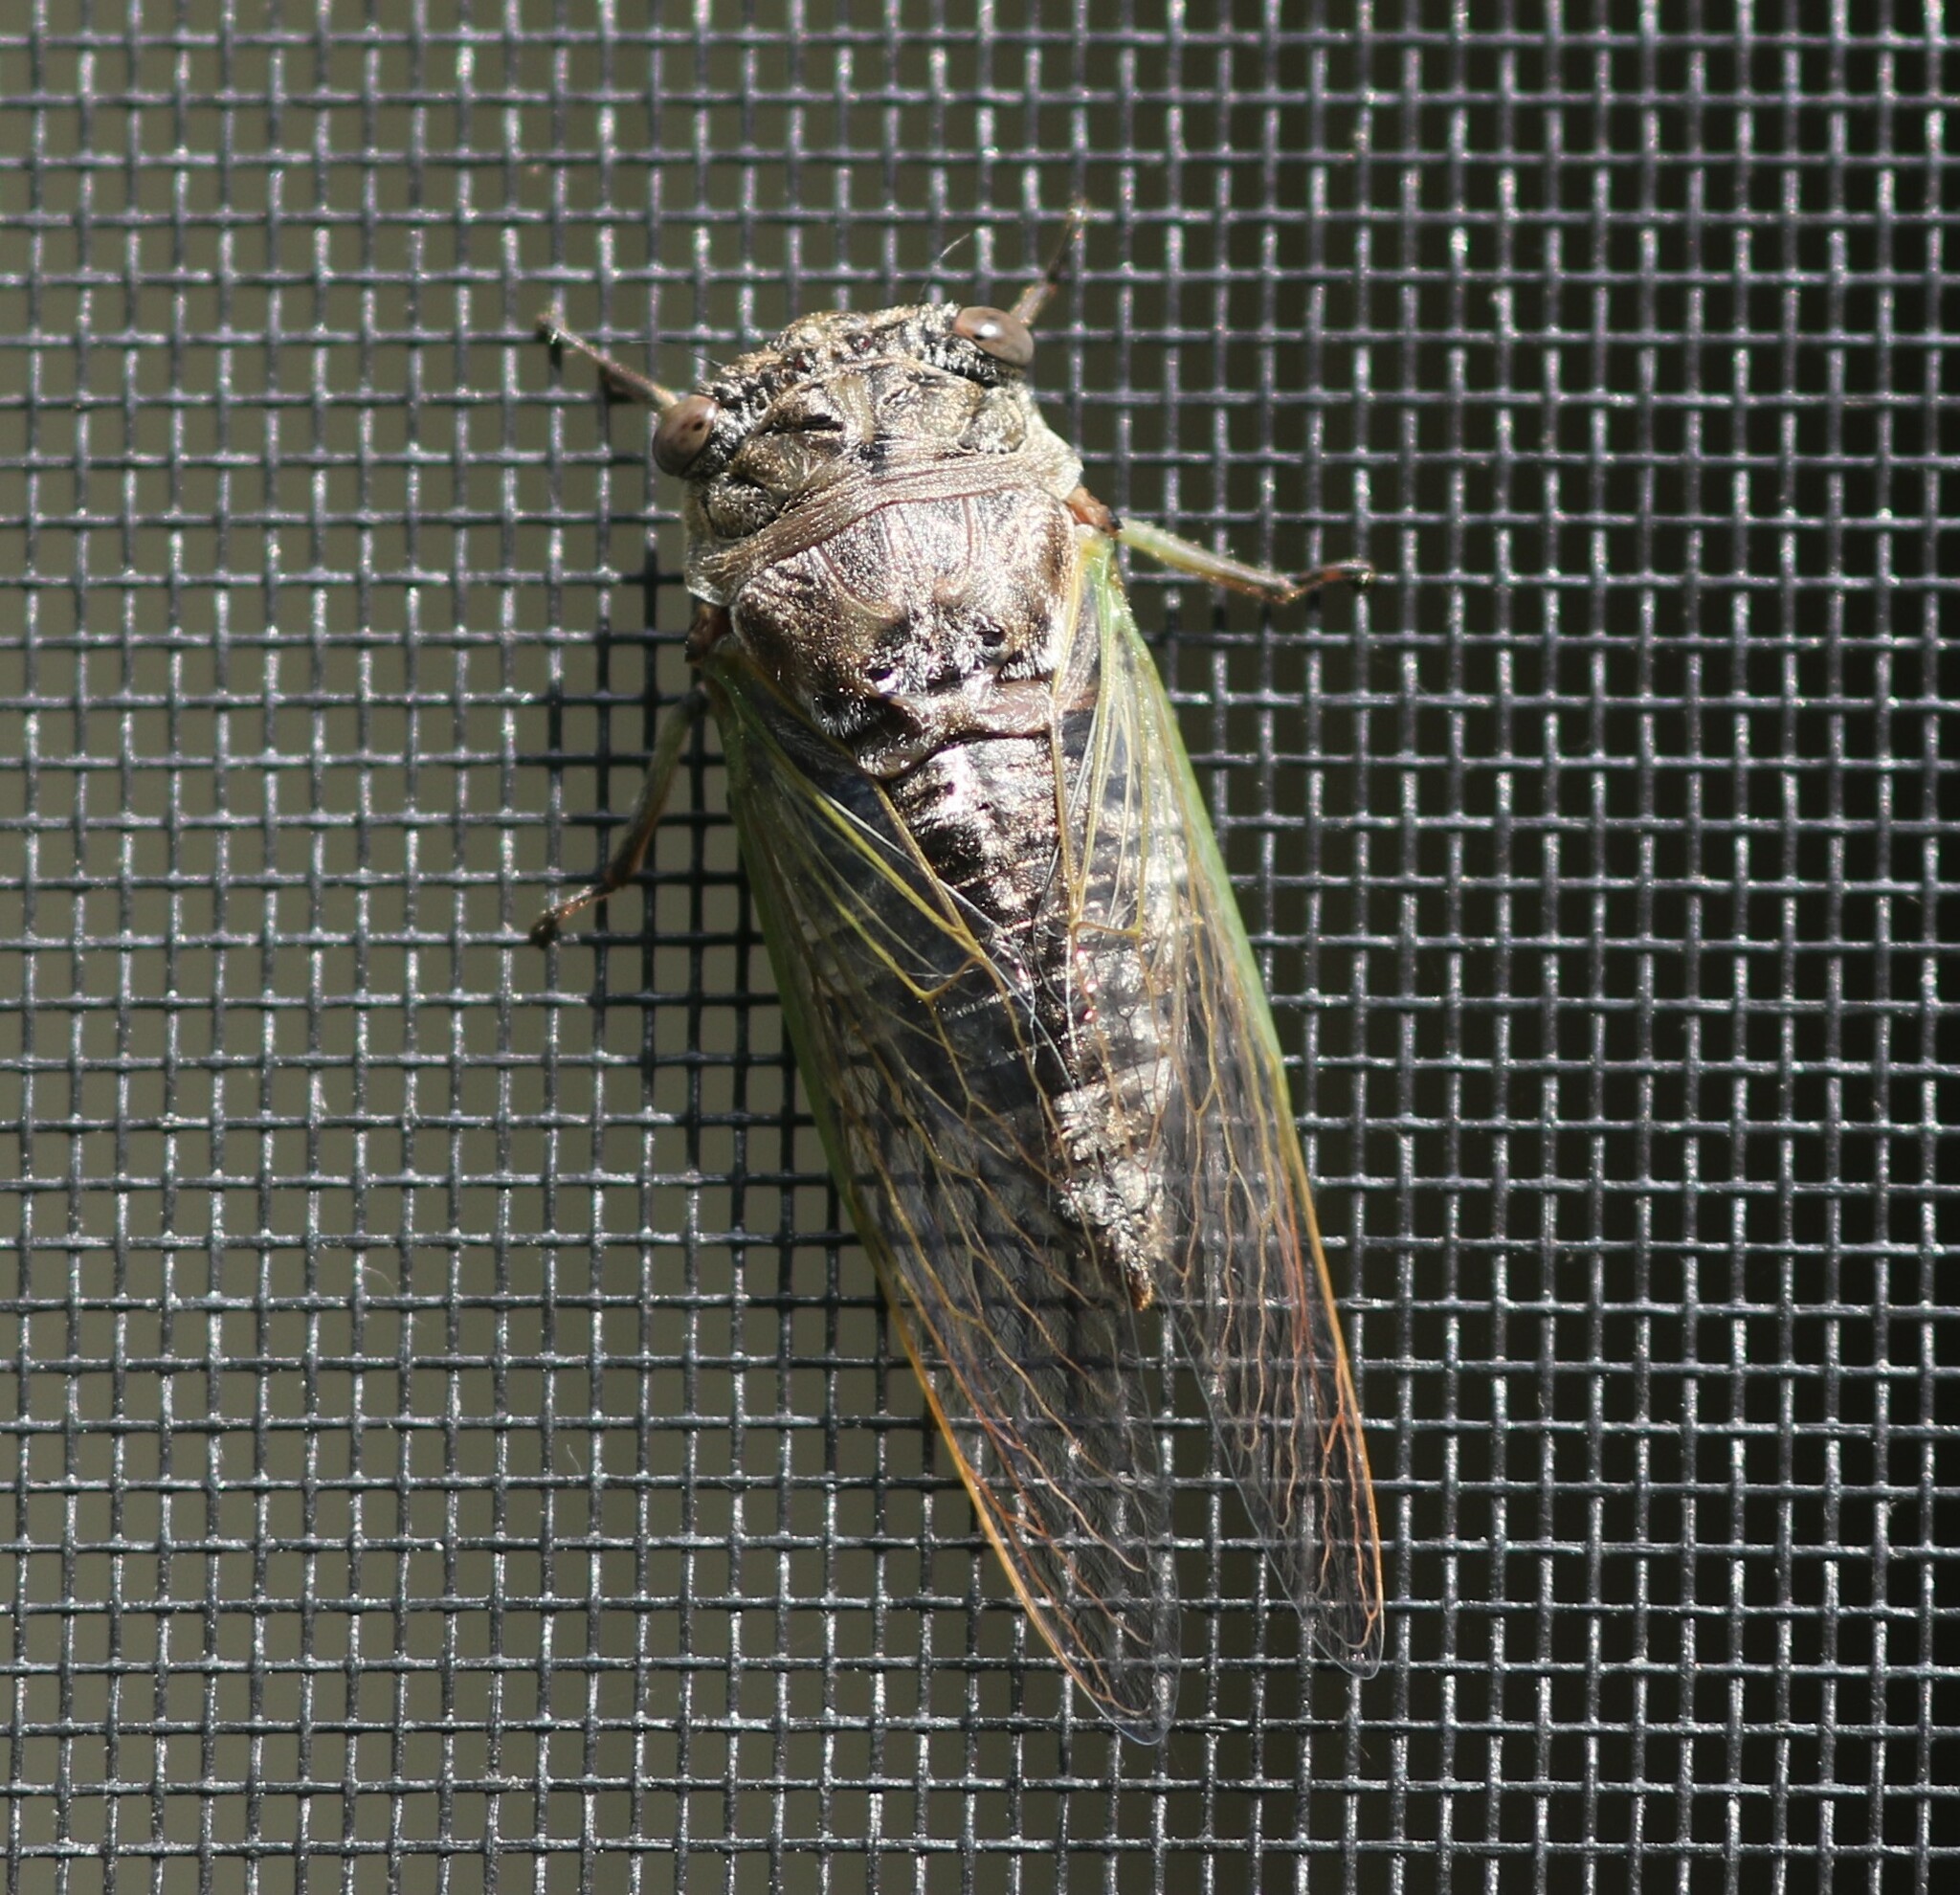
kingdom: Animalia
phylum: Arthropoda
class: Insecta
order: Hemiptera
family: Cicadidae
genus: Neotibicen
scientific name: Neotibicen canicularis
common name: God-day cicada
